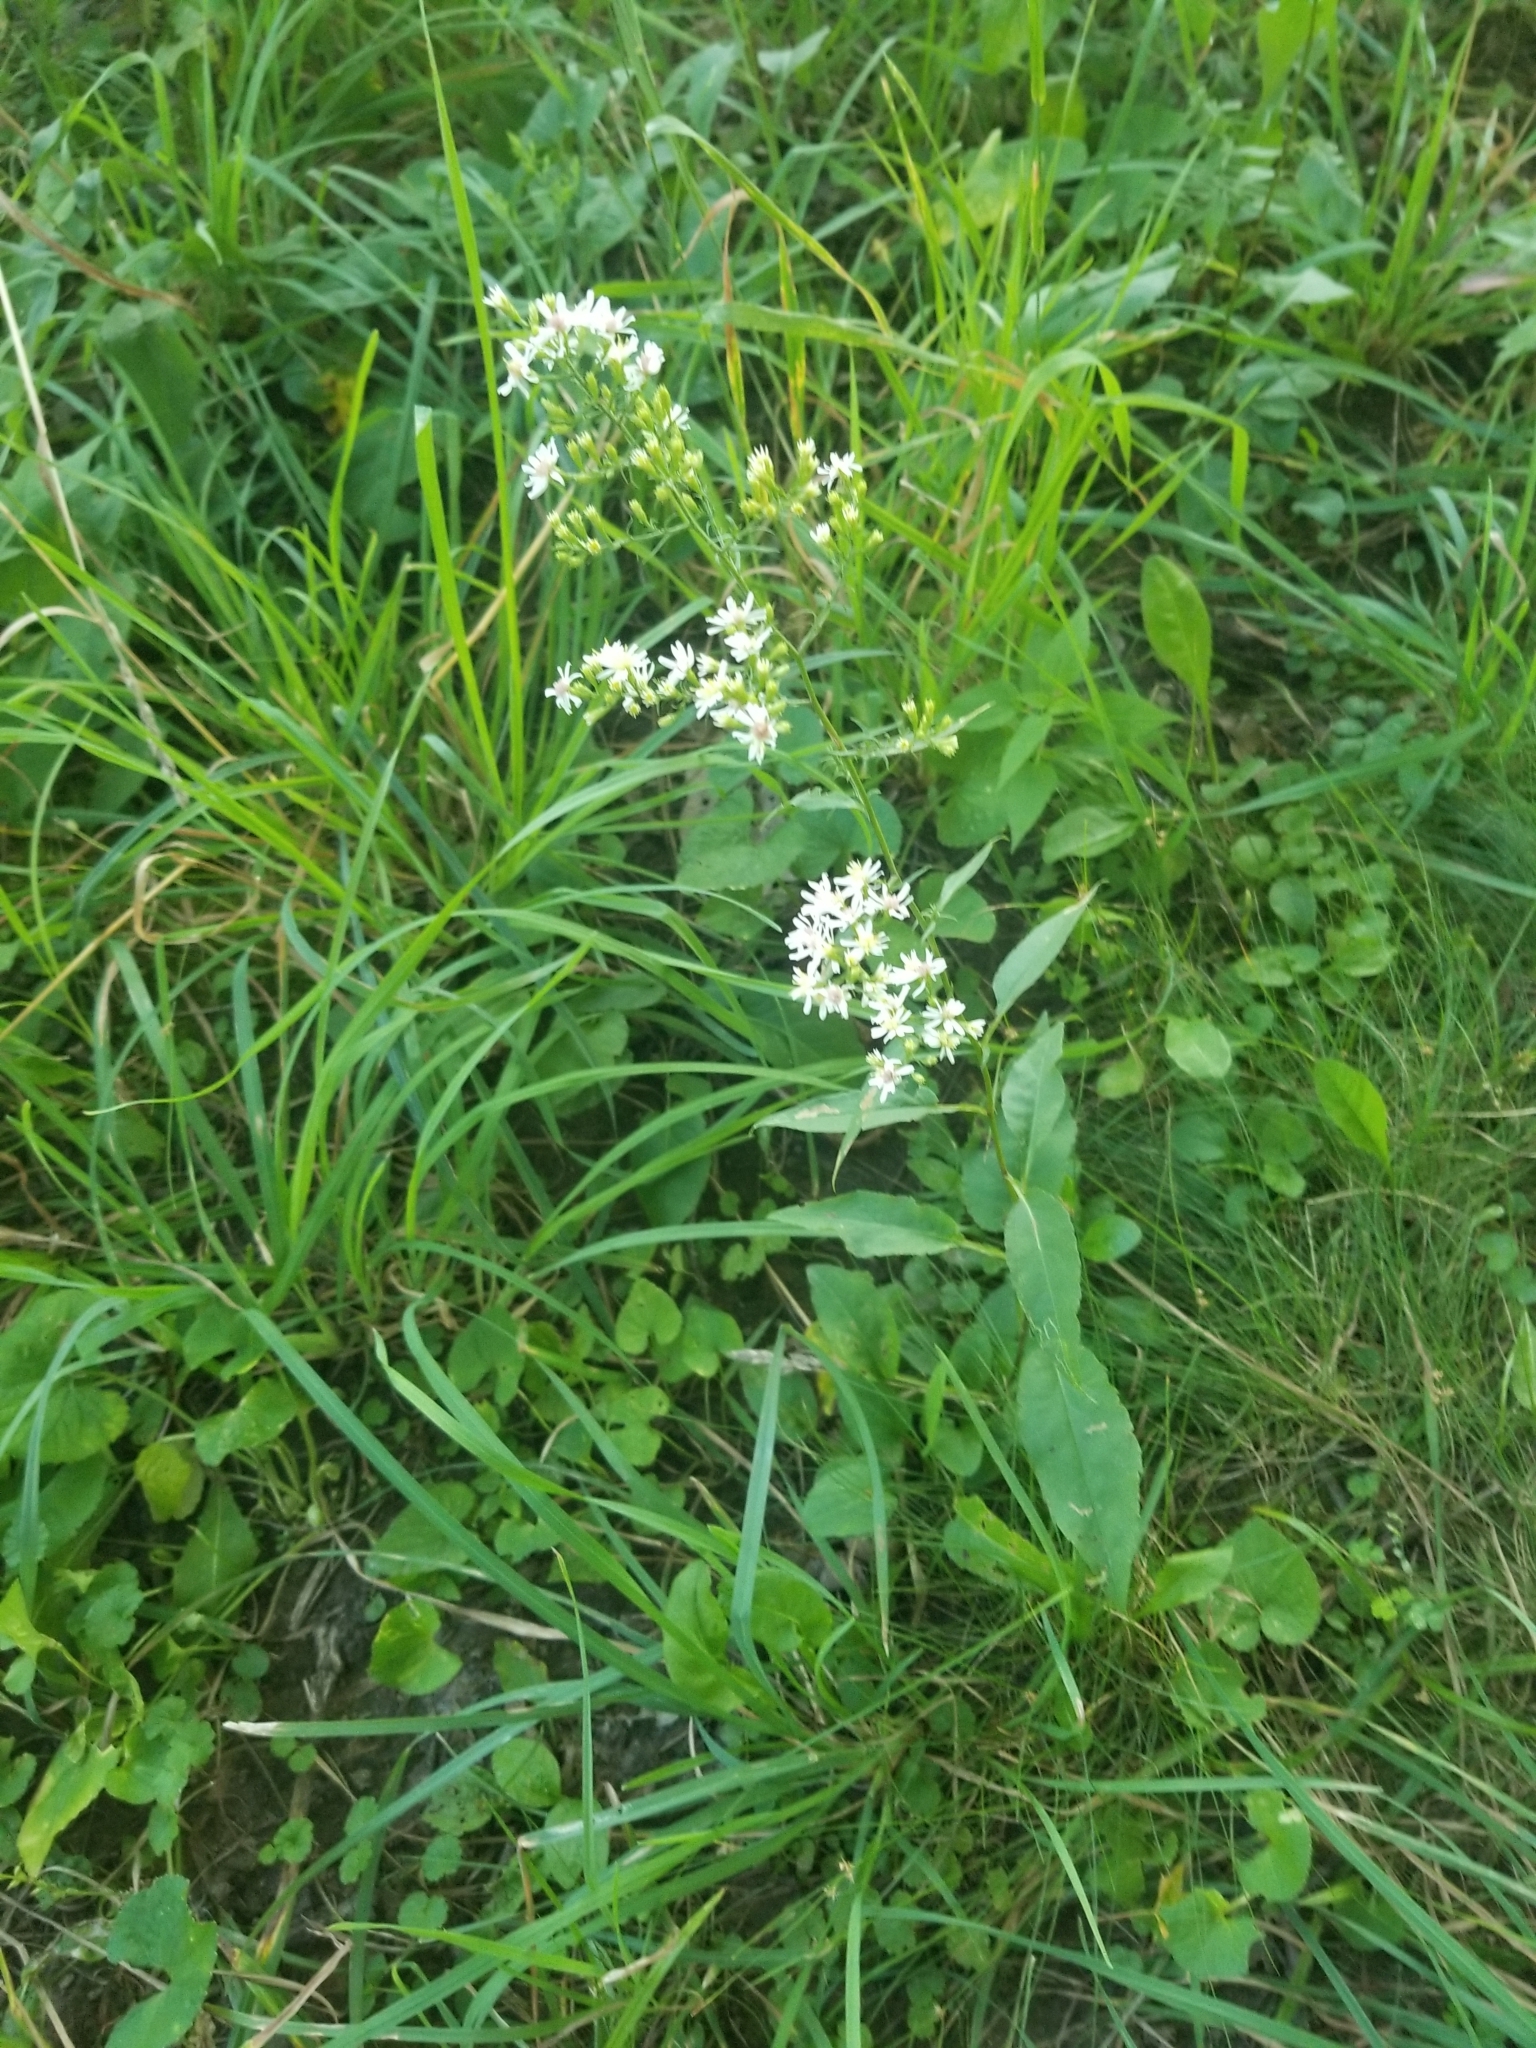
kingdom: Plantae
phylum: Tracheophyta
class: Magnoliopsida
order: Asterales
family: Asteraceae
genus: Symphyotrichum
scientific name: Symphyotrichum urophyllum
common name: Arrow-leaved aster
